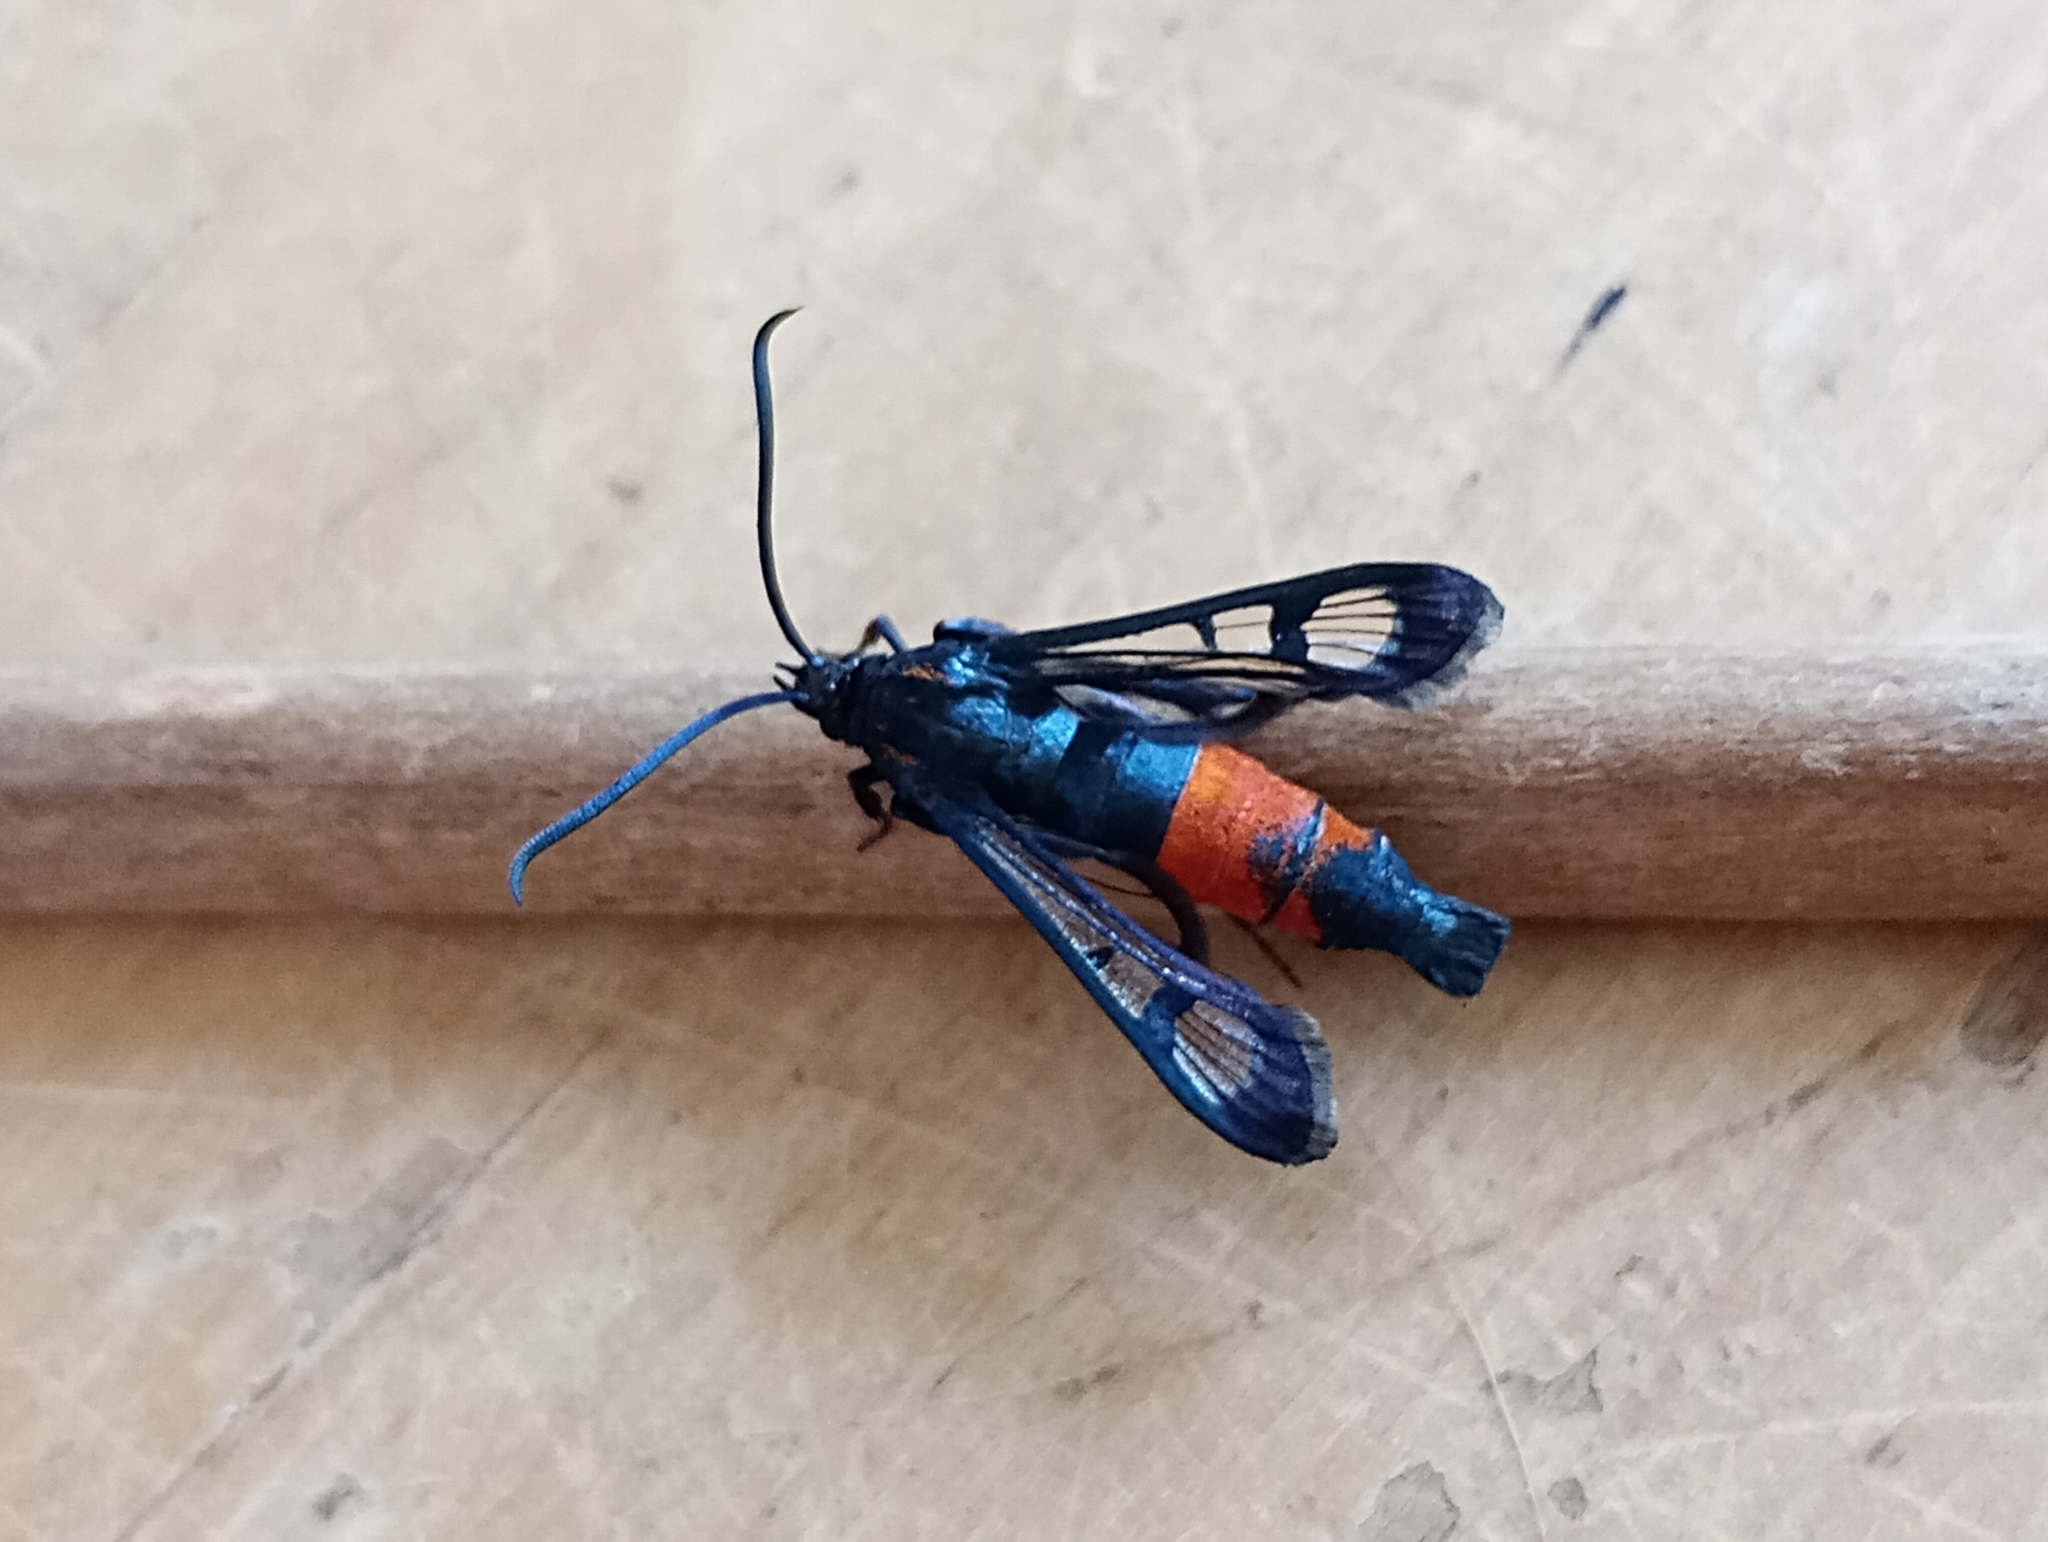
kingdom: Animalia
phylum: Arthropoda
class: Insecta
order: Lepidoptera
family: Sesiidae
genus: Synanthedon
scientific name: Synanthedon stomoxiformis
